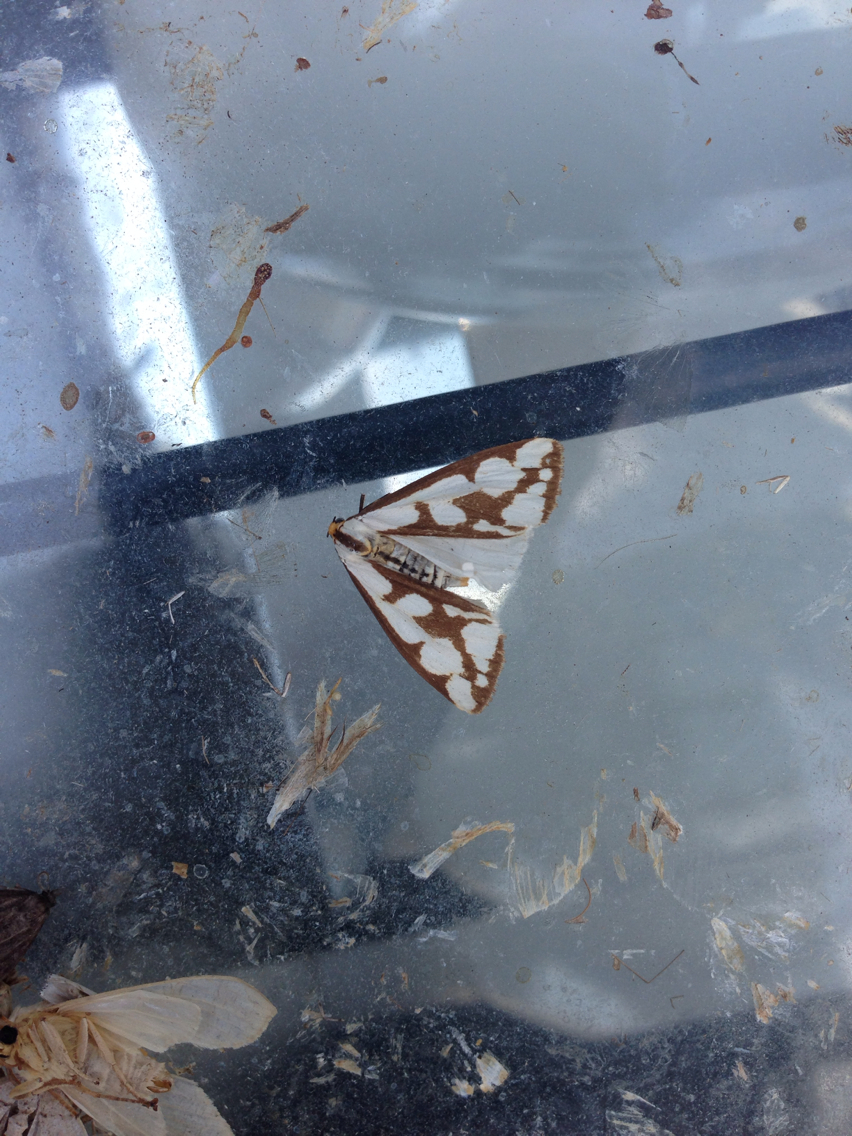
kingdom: Animalia
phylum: Arthropoda
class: Insecta
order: Lepidoptera
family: Erebidae
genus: Haploa
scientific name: Haploa confusa
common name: Confused haploa moth
